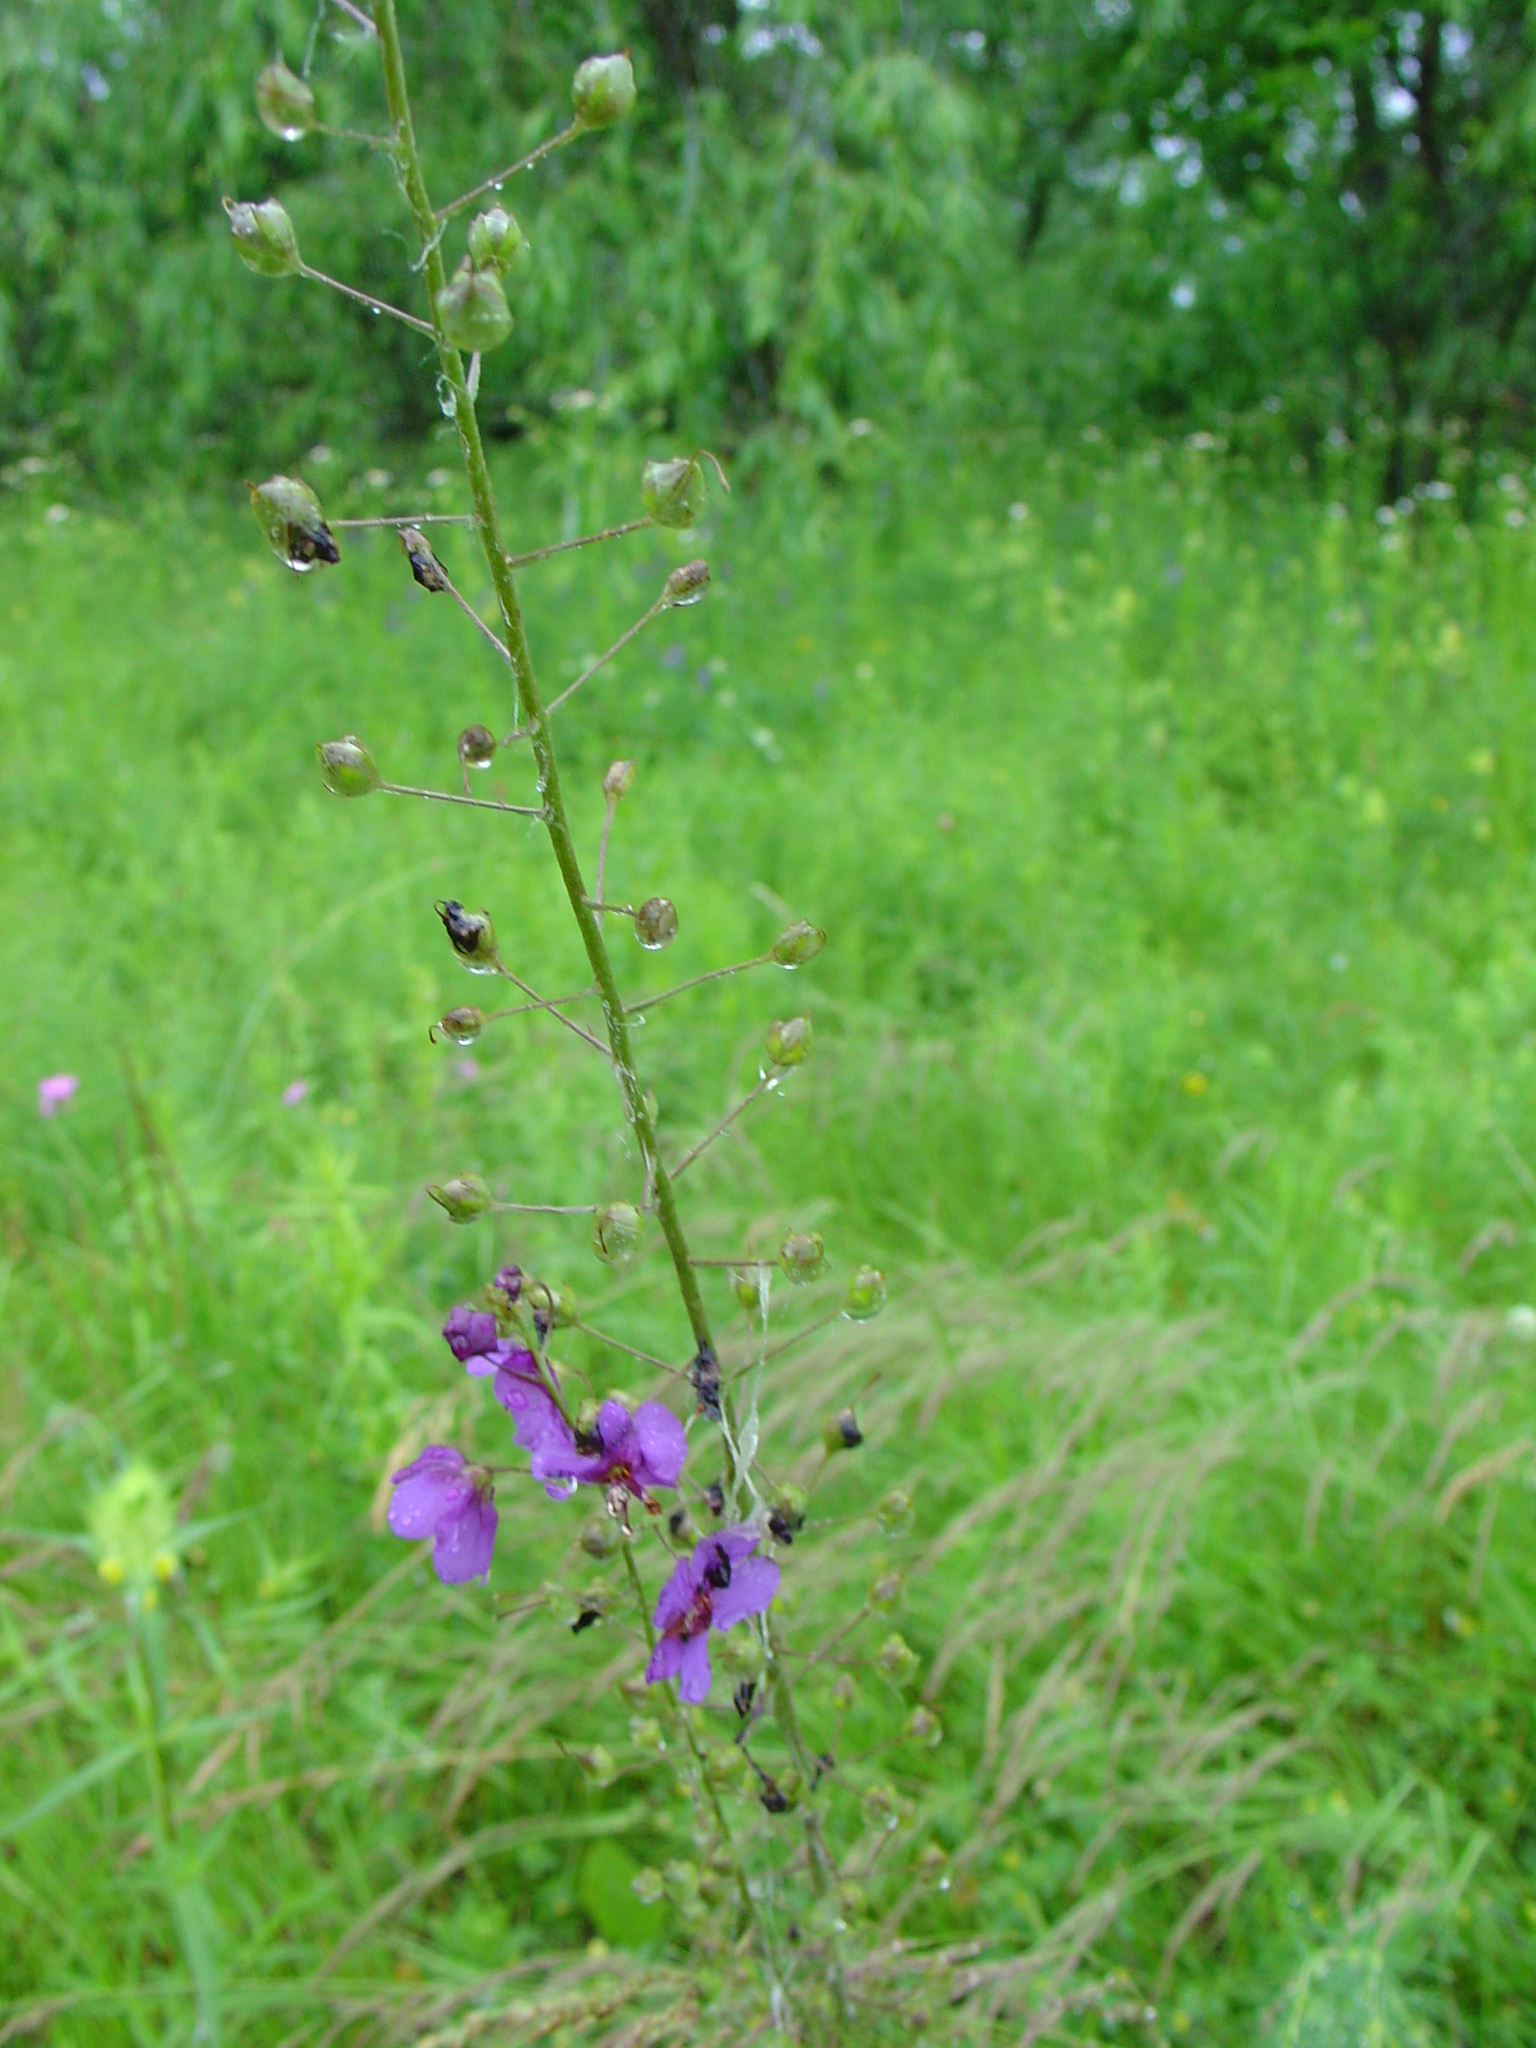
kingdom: Plantae
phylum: Tracheophyta
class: Magnoliopsida
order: Lamiales
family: Scrophulariaceae
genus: Verbascum
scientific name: Verbascum phoeniceum
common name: Purple mullein
